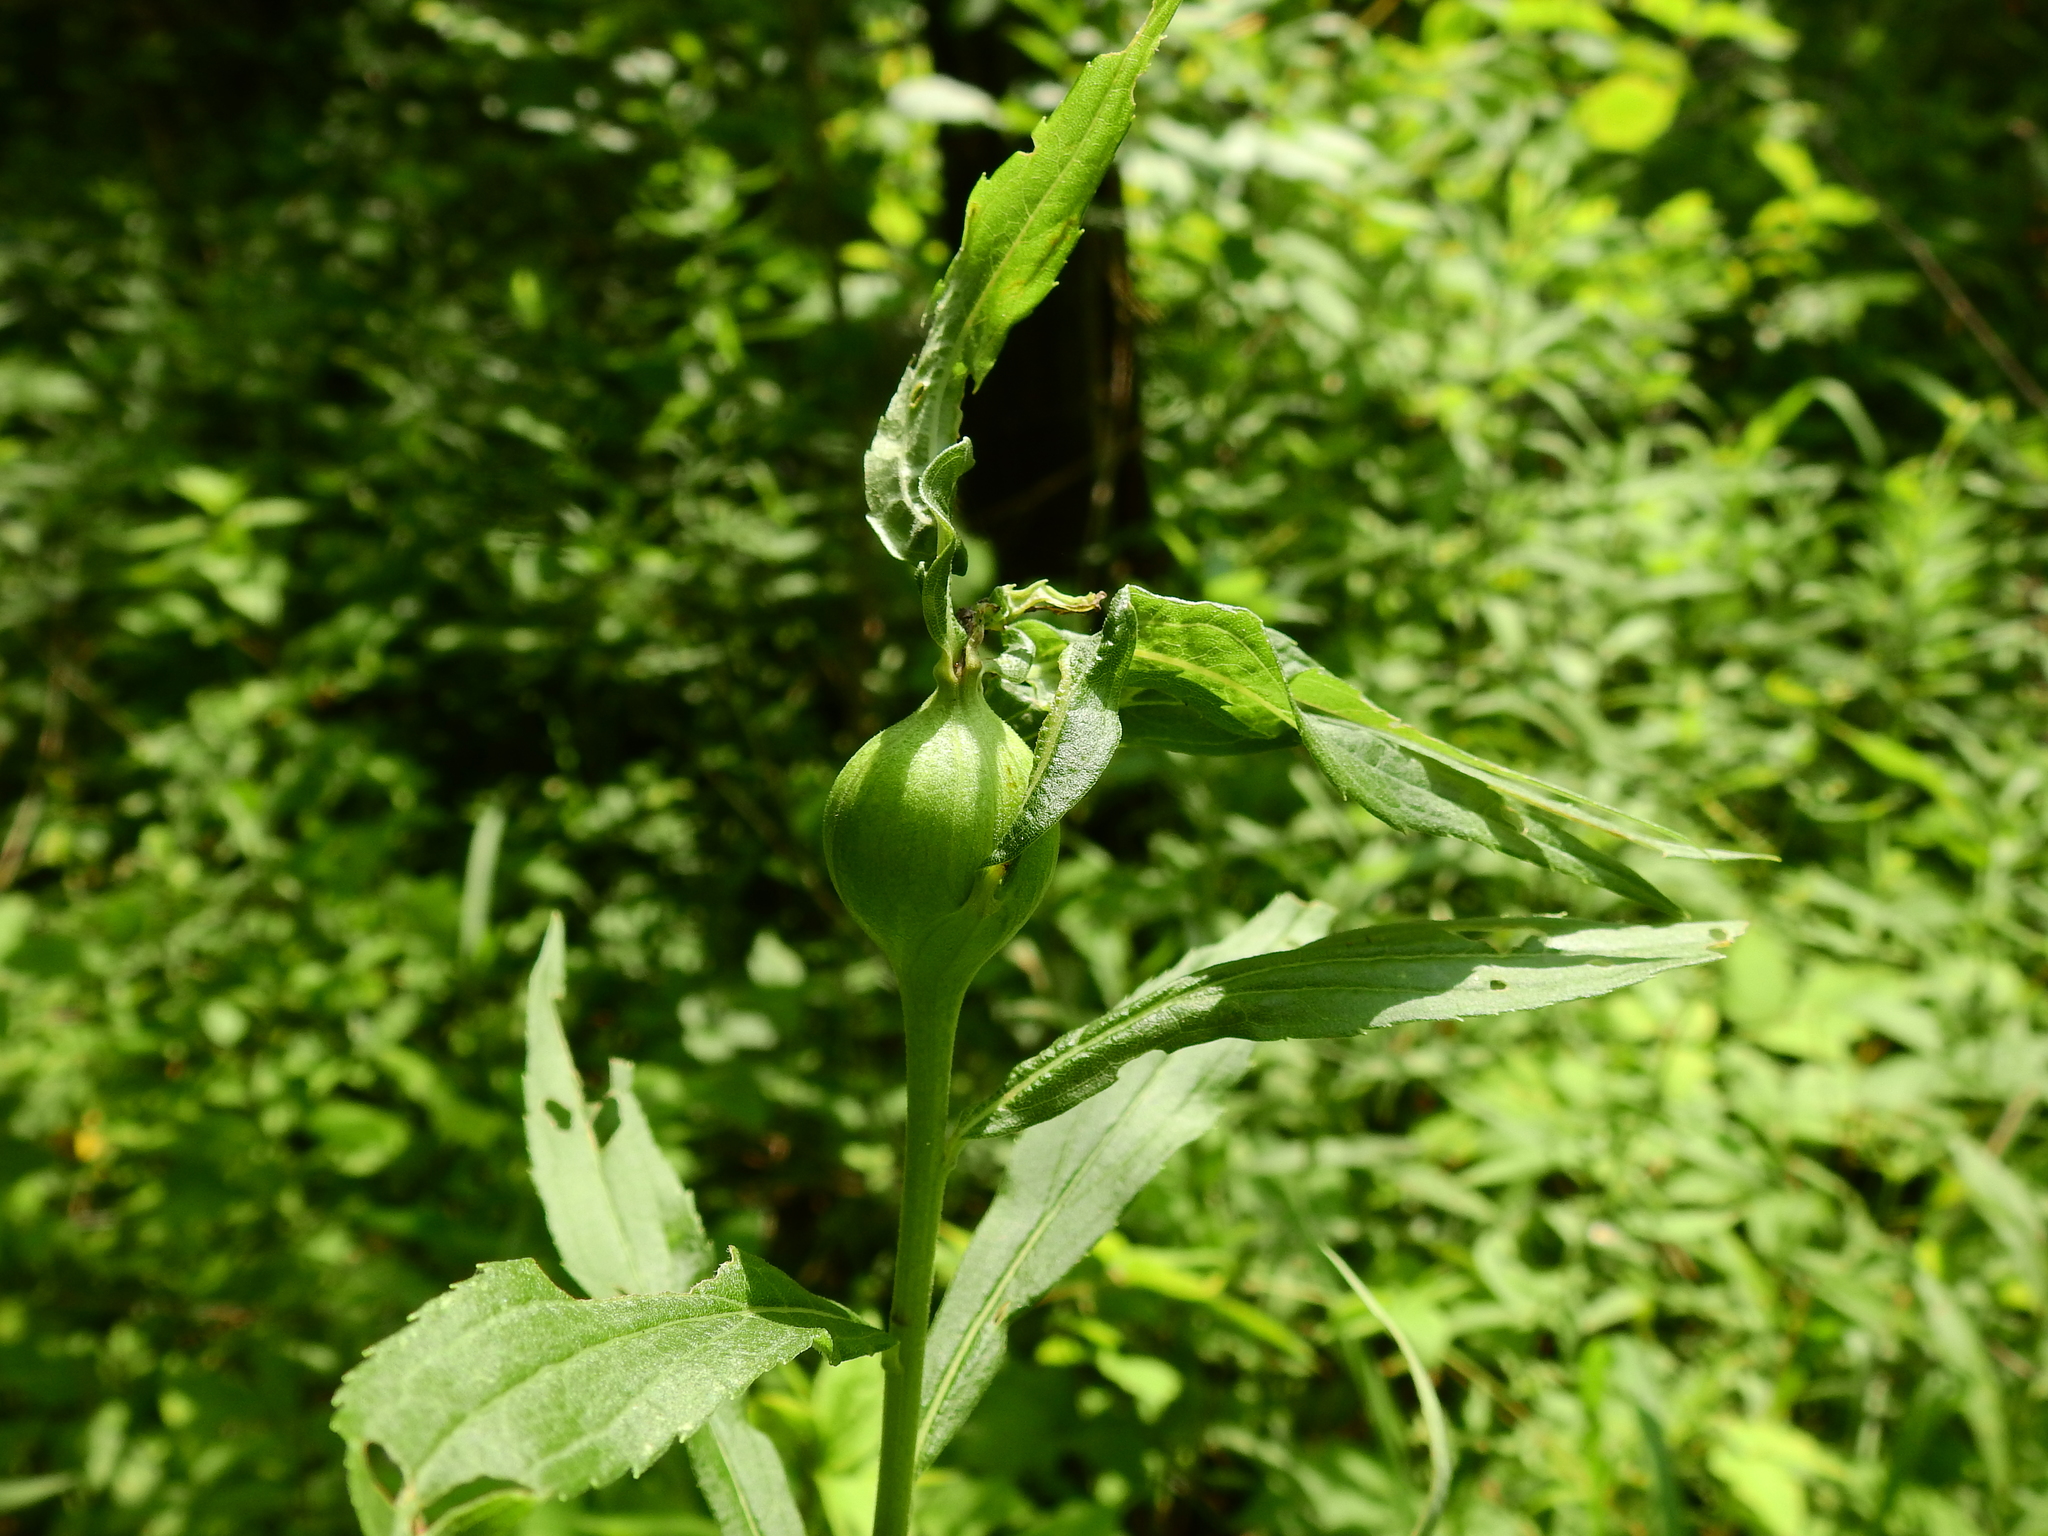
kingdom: Animalia
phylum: Arthropoda
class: Insecta
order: Diptera
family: Tephritidae
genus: Eurosta
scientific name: Eurosta solidaginis
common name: Goldenrod gall fly
